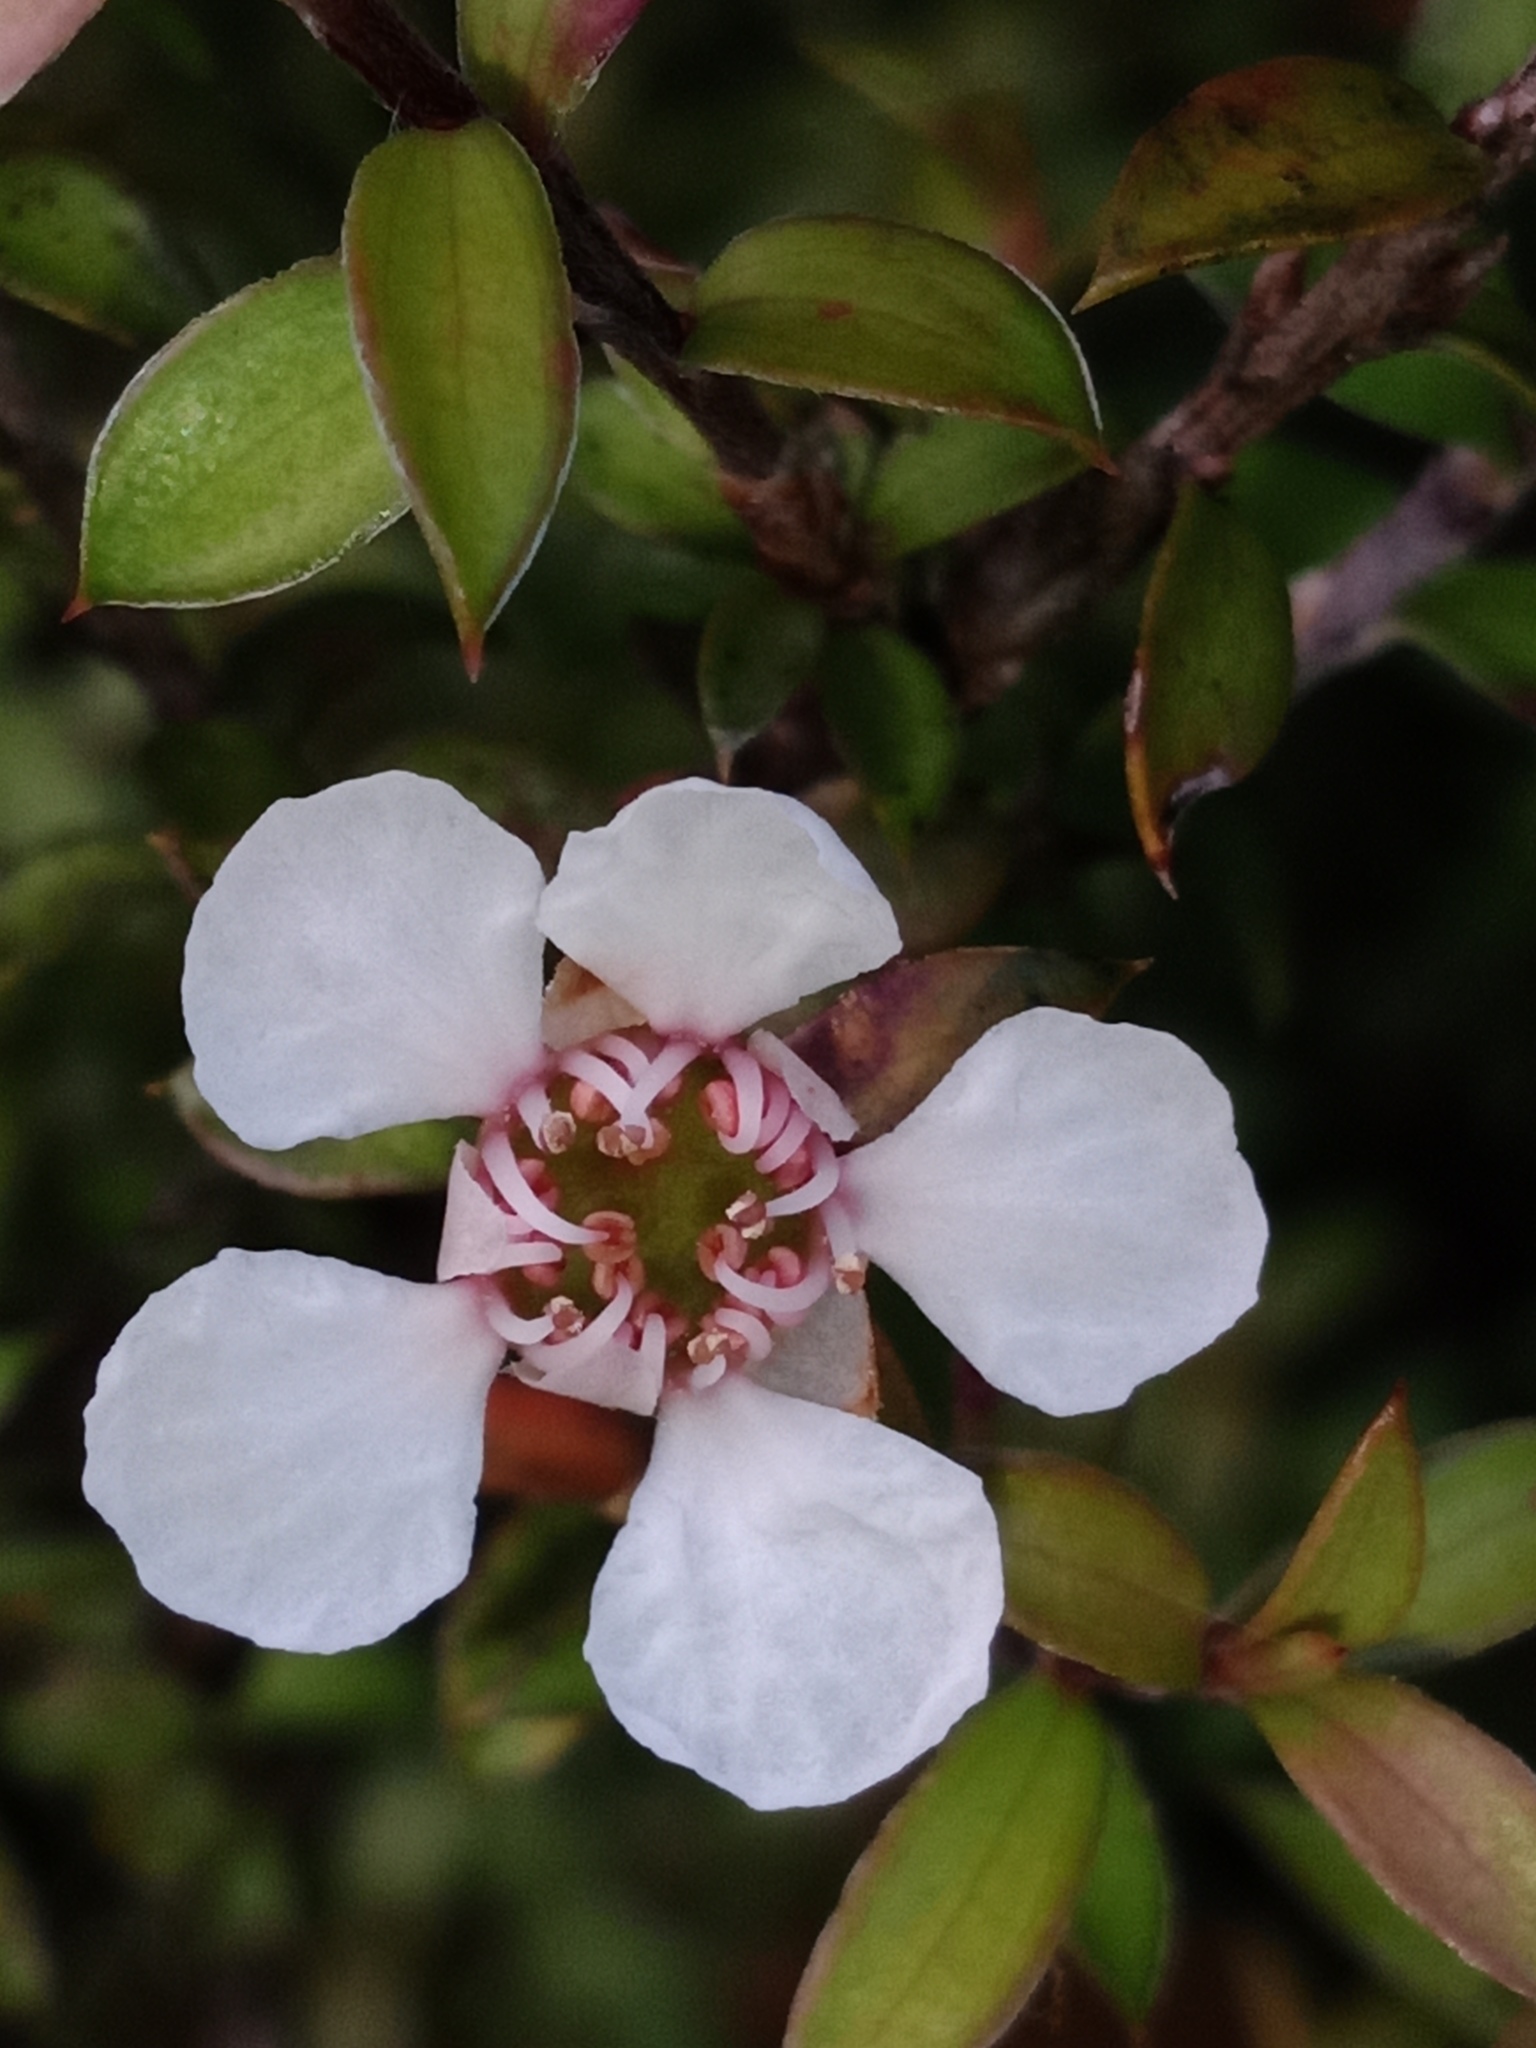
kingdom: Plantae
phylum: Tracheophyta
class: Magnoliopsida
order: Myrtales
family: Myrtaceae
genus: Leptospermum
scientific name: Leptospermum scoparium
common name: Broom tea-tree
